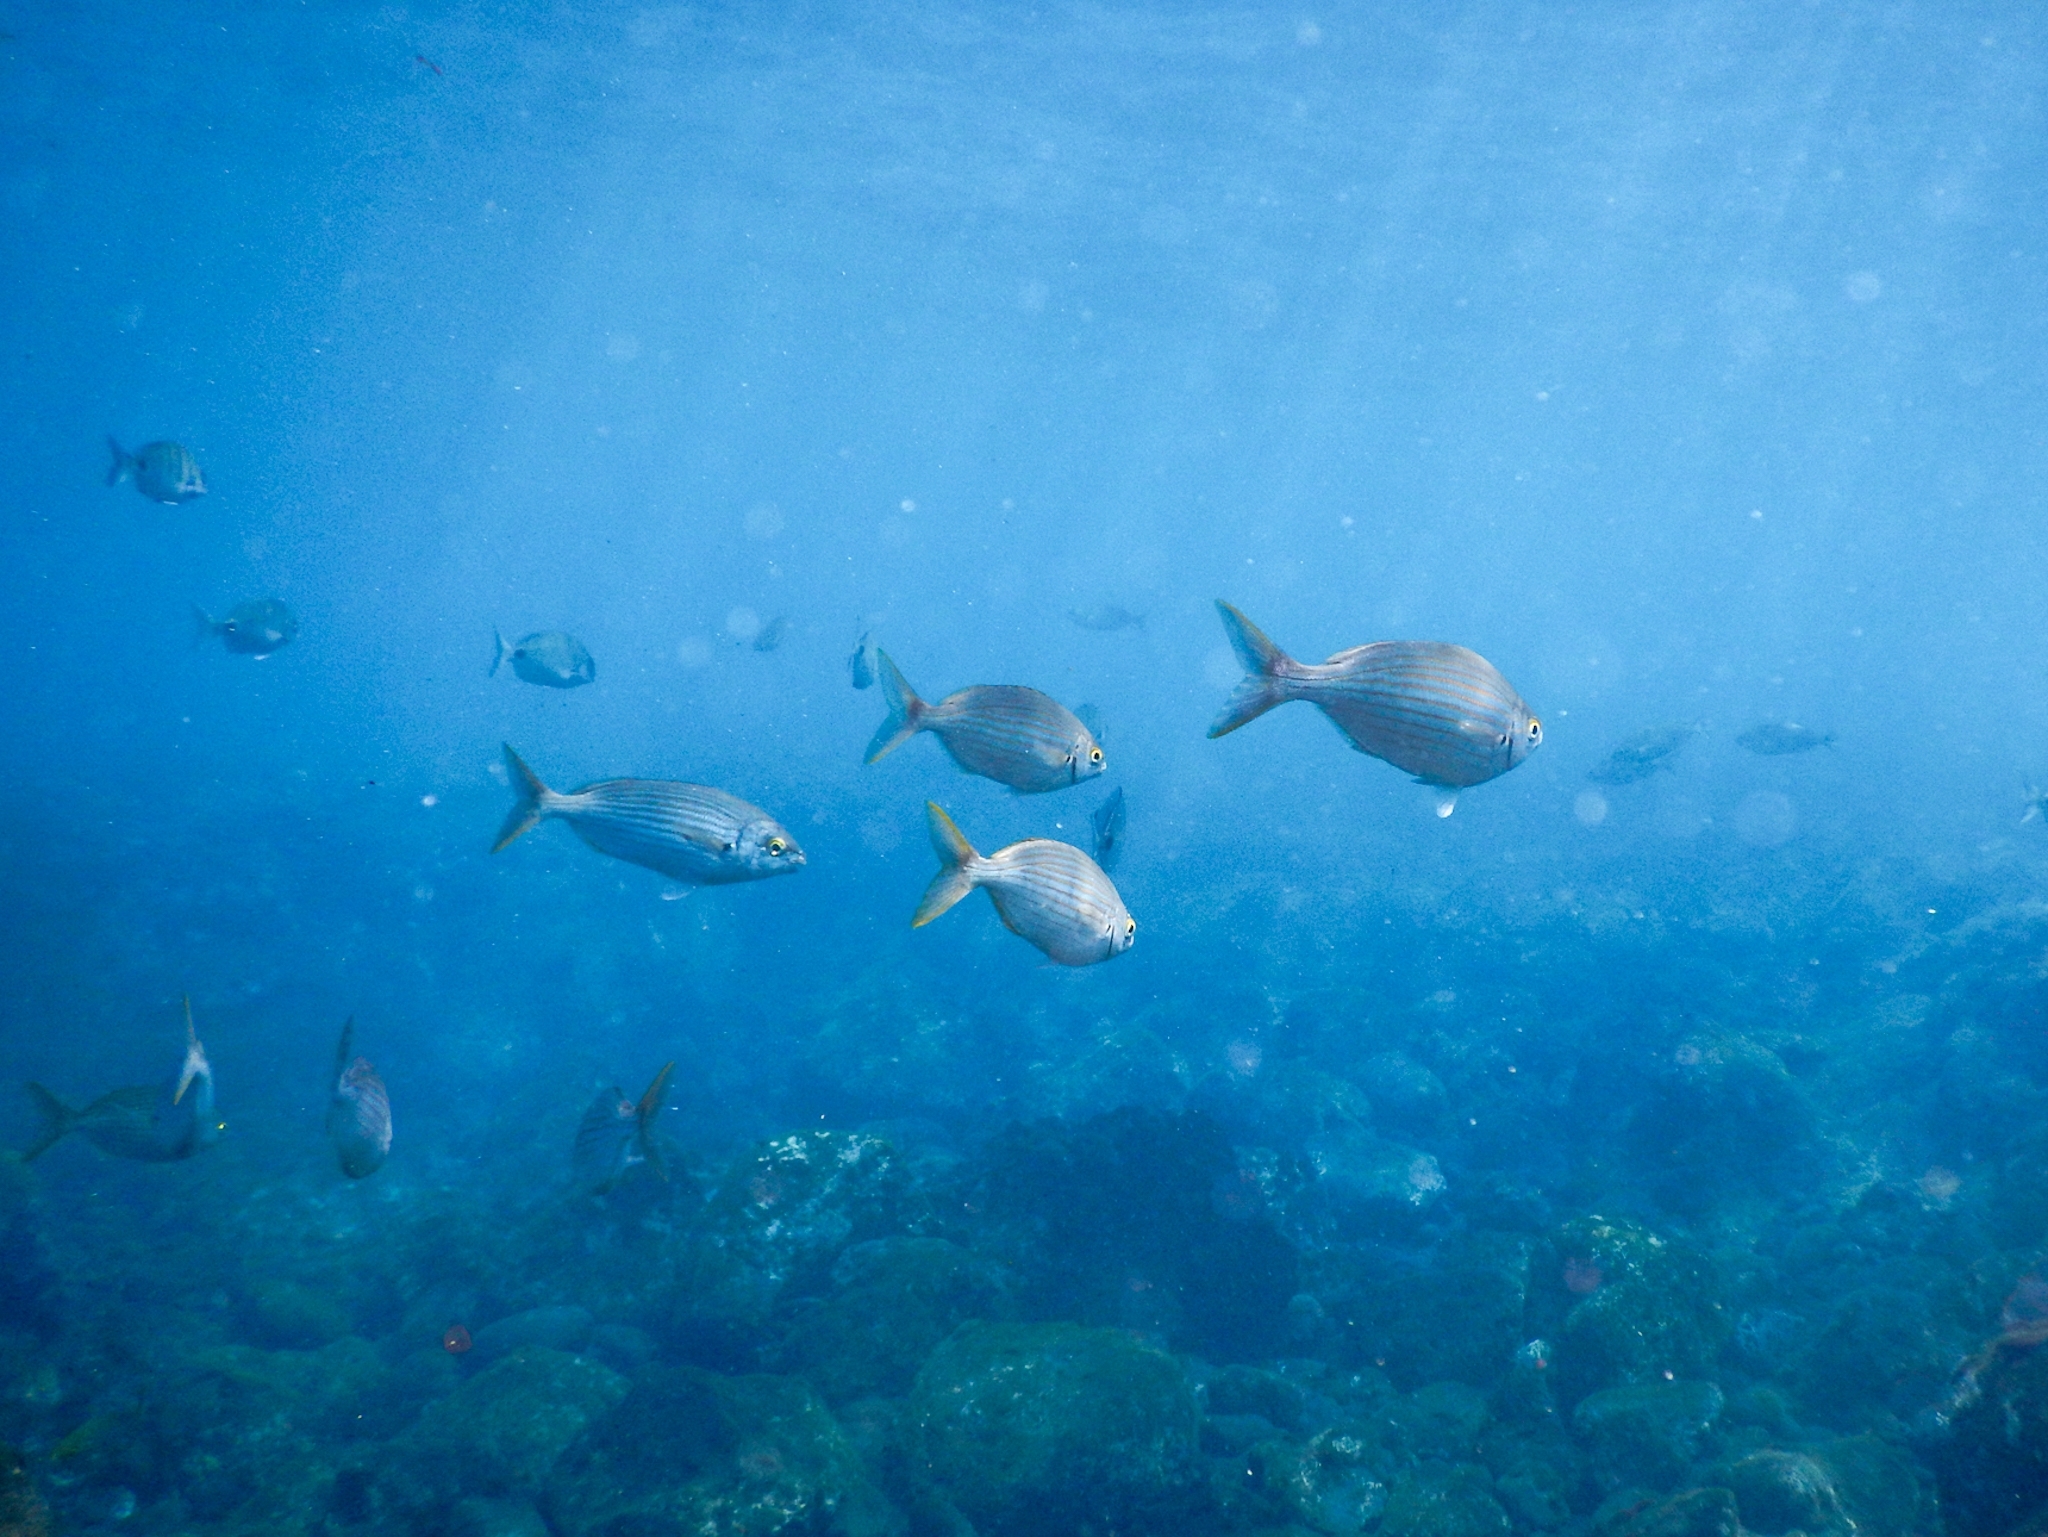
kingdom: Animalia
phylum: Chordata
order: Perciformes
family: Sparidae
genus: Sarpa
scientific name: Sarpa salpa
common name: Salema
